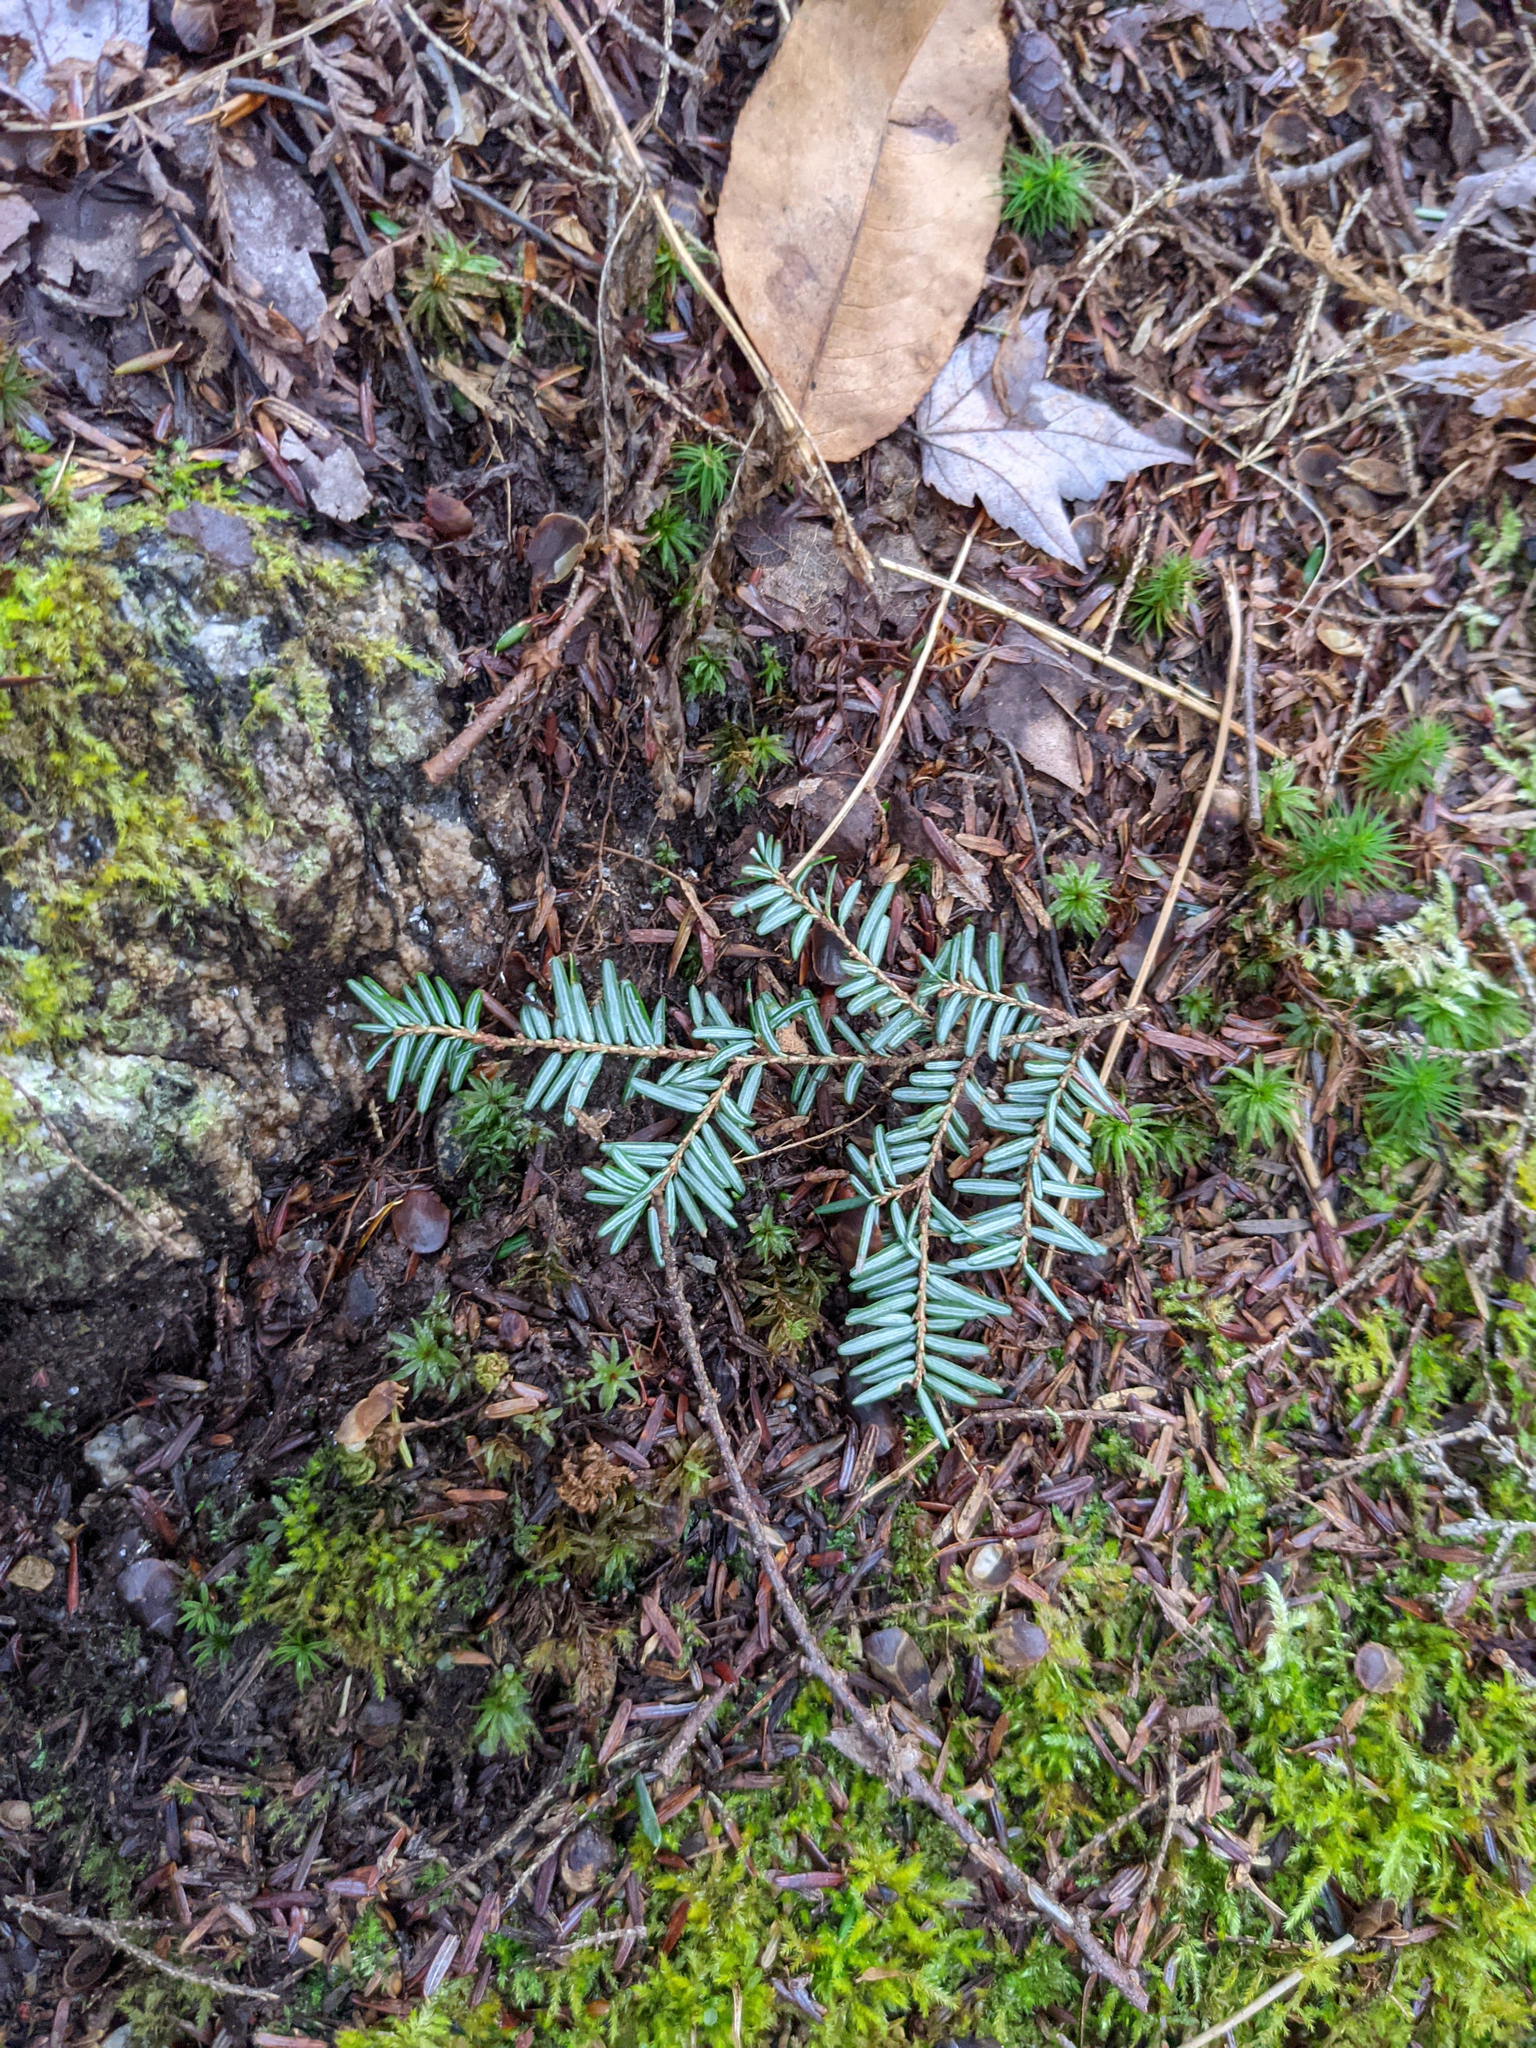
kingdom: Plantae
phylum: Tracheophyta
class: Pinopsida
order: Pinales
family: Pinaceae
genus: Tsuga
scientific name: Tsuga canadensis
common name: Eastern hemlock
